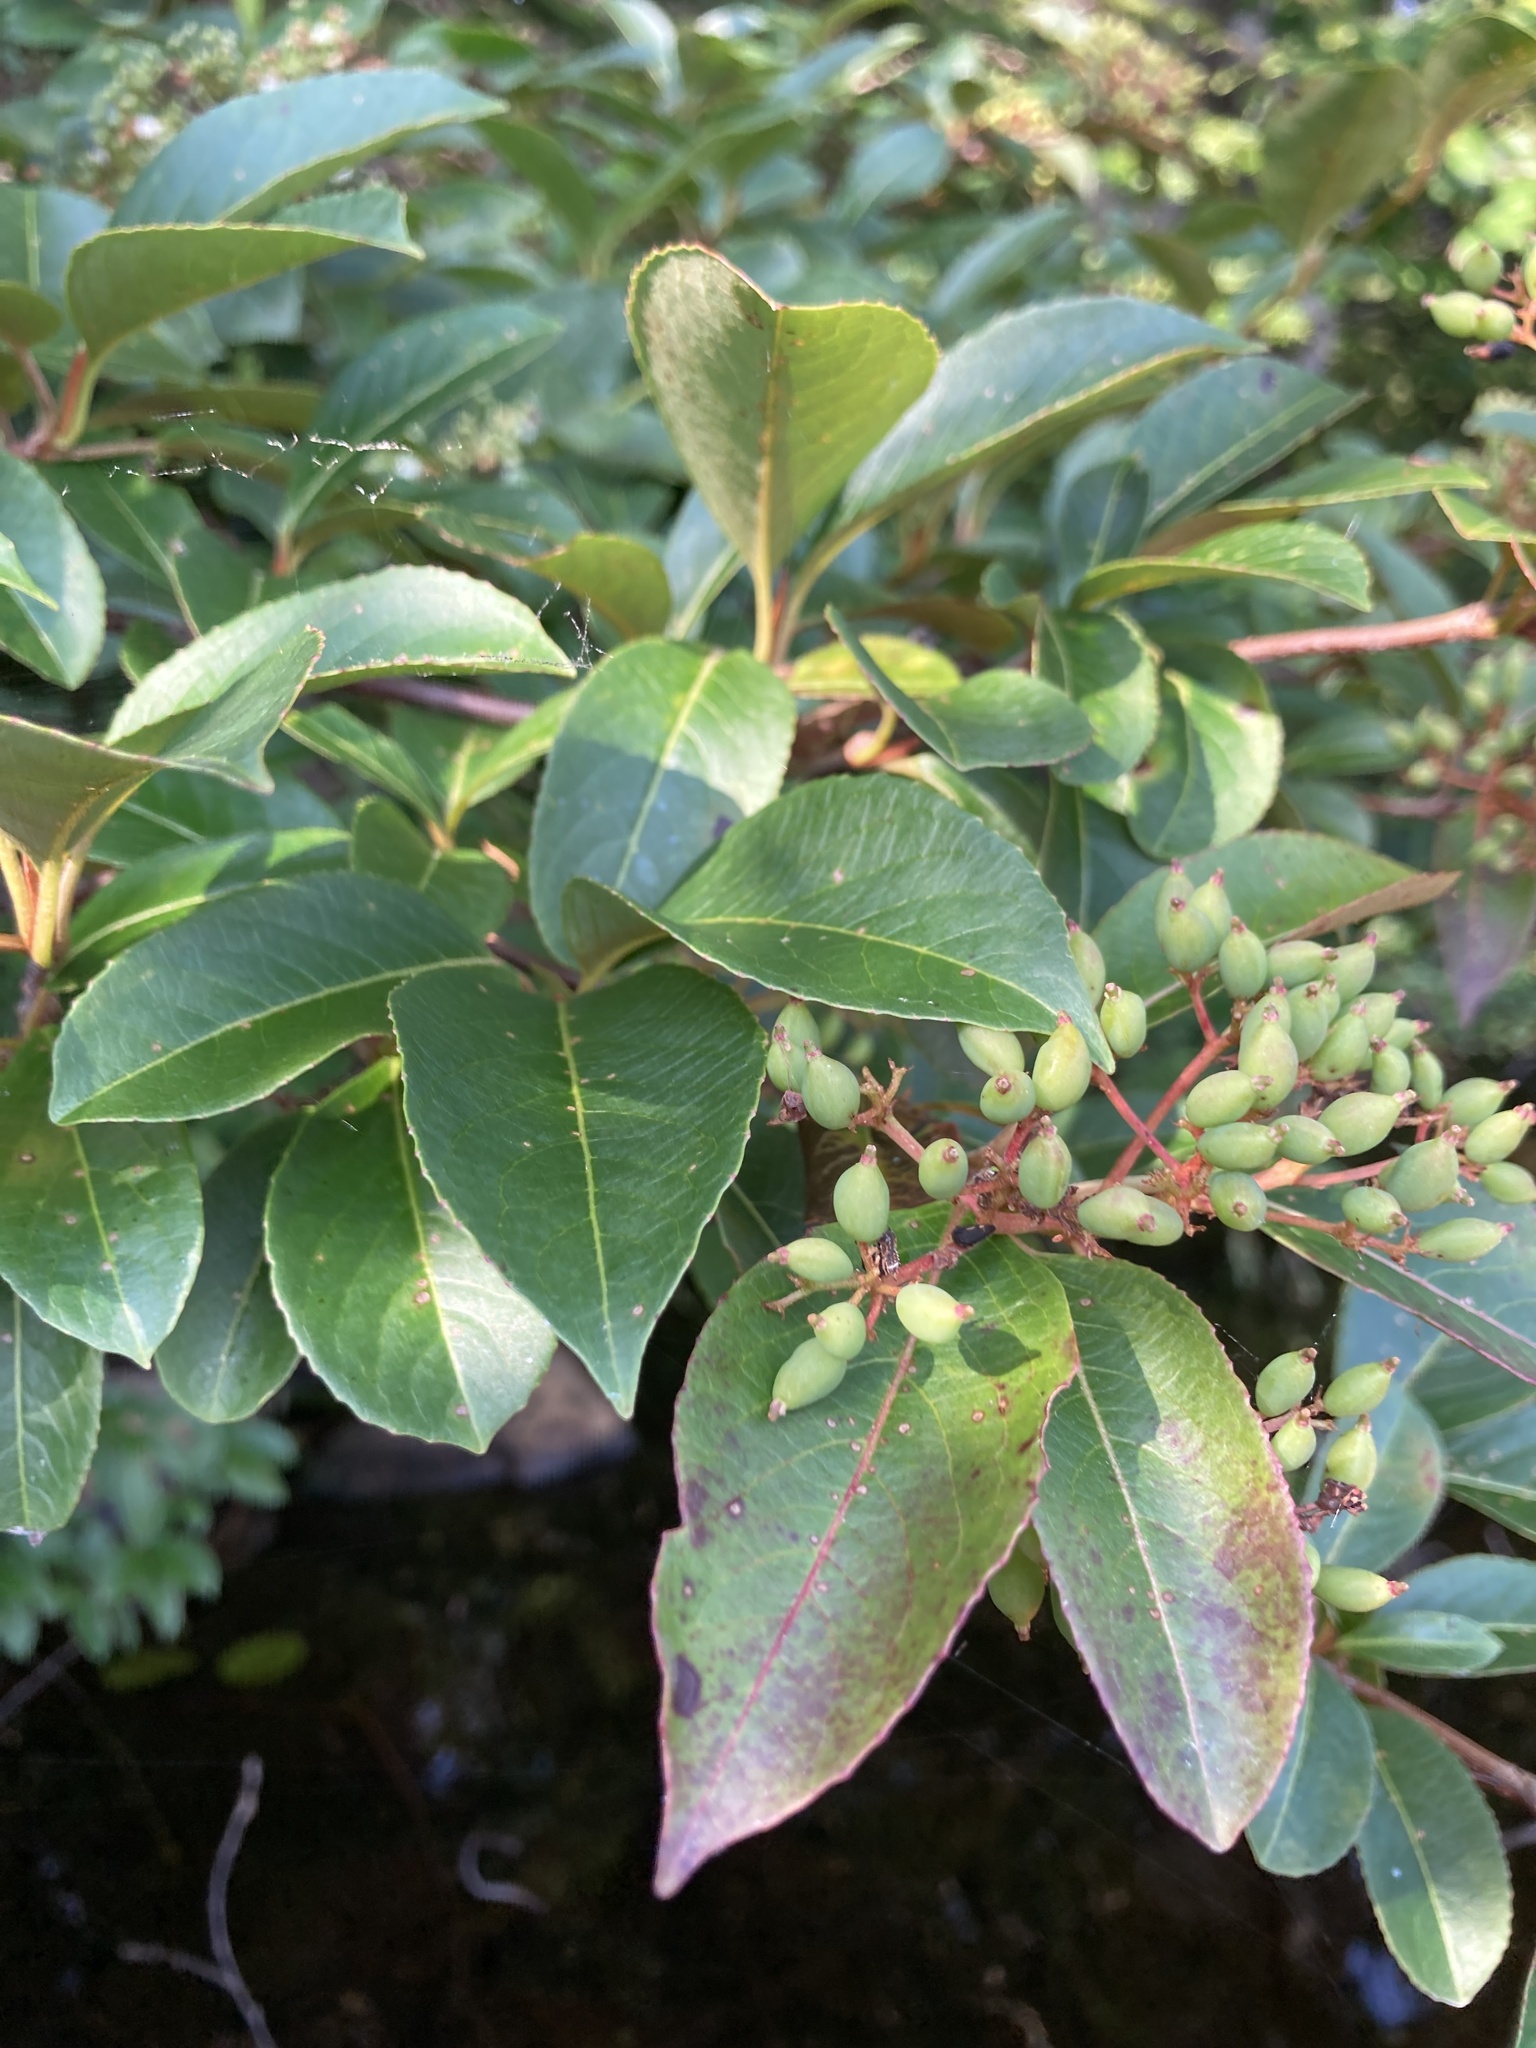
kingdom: Plantae
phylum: Tracheophyta
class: Magnoliopsida
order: Dipsacales
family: Viburnaceae
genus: Viburnum
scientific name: Viburnum cassinoides
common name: Swamp haw
